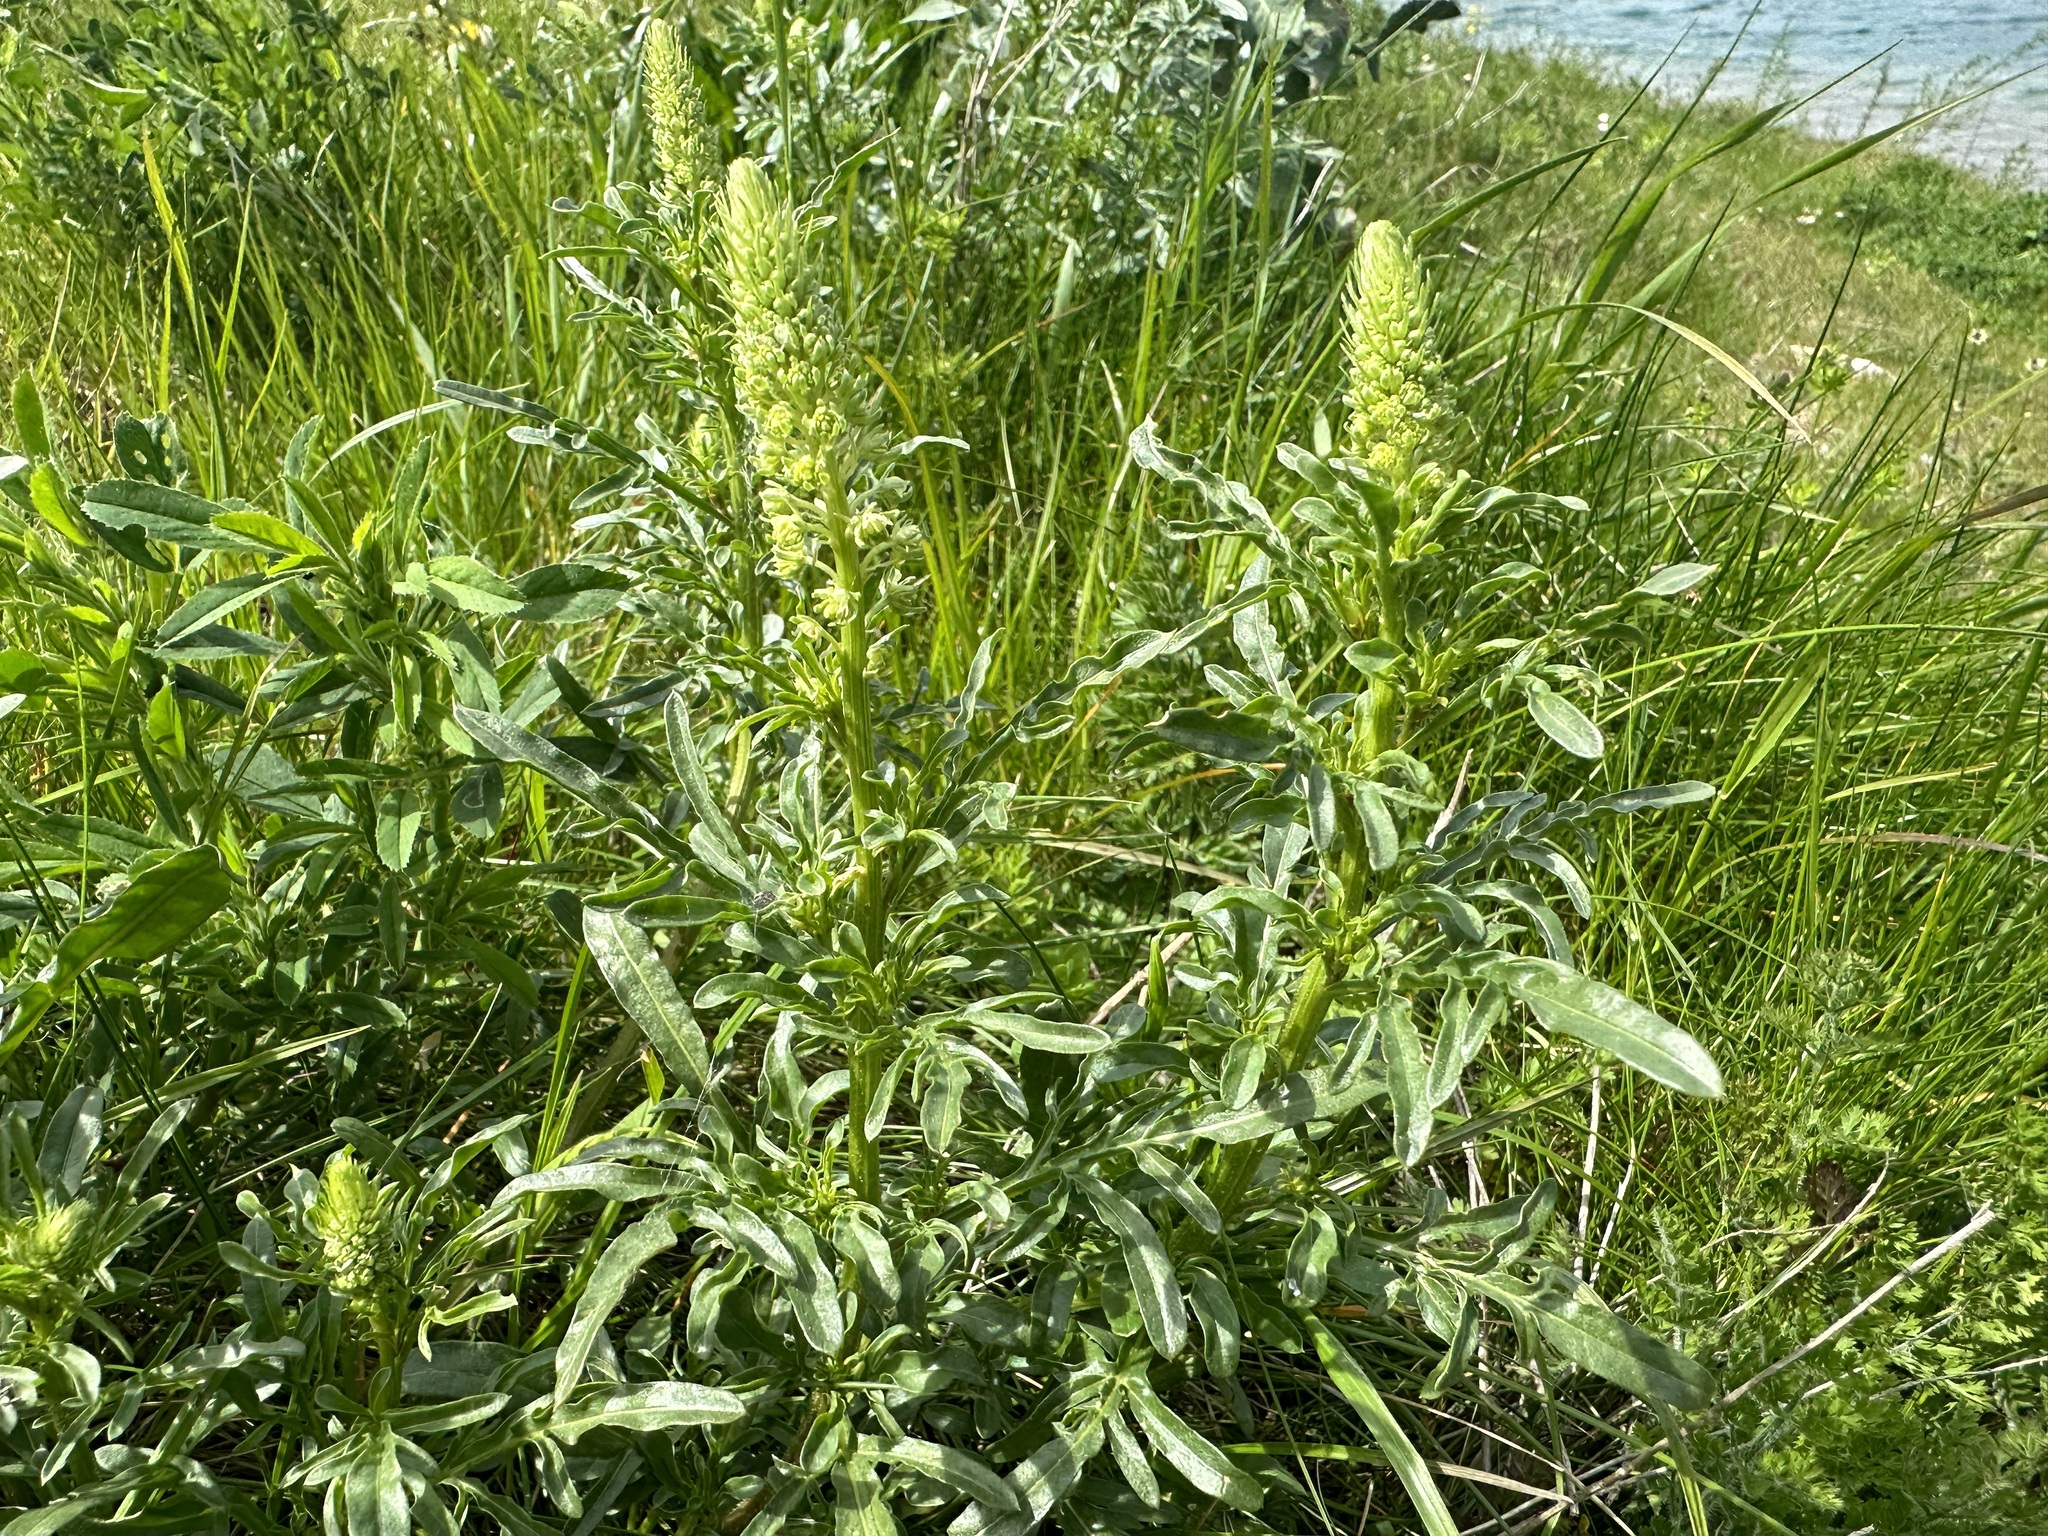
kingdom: Plantae
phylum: Tracheophyta
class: Magnoliopsida
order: Brassicales
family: Resedaceae
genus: Reseda
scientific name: Reseda lutea
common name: Wild mignonette
